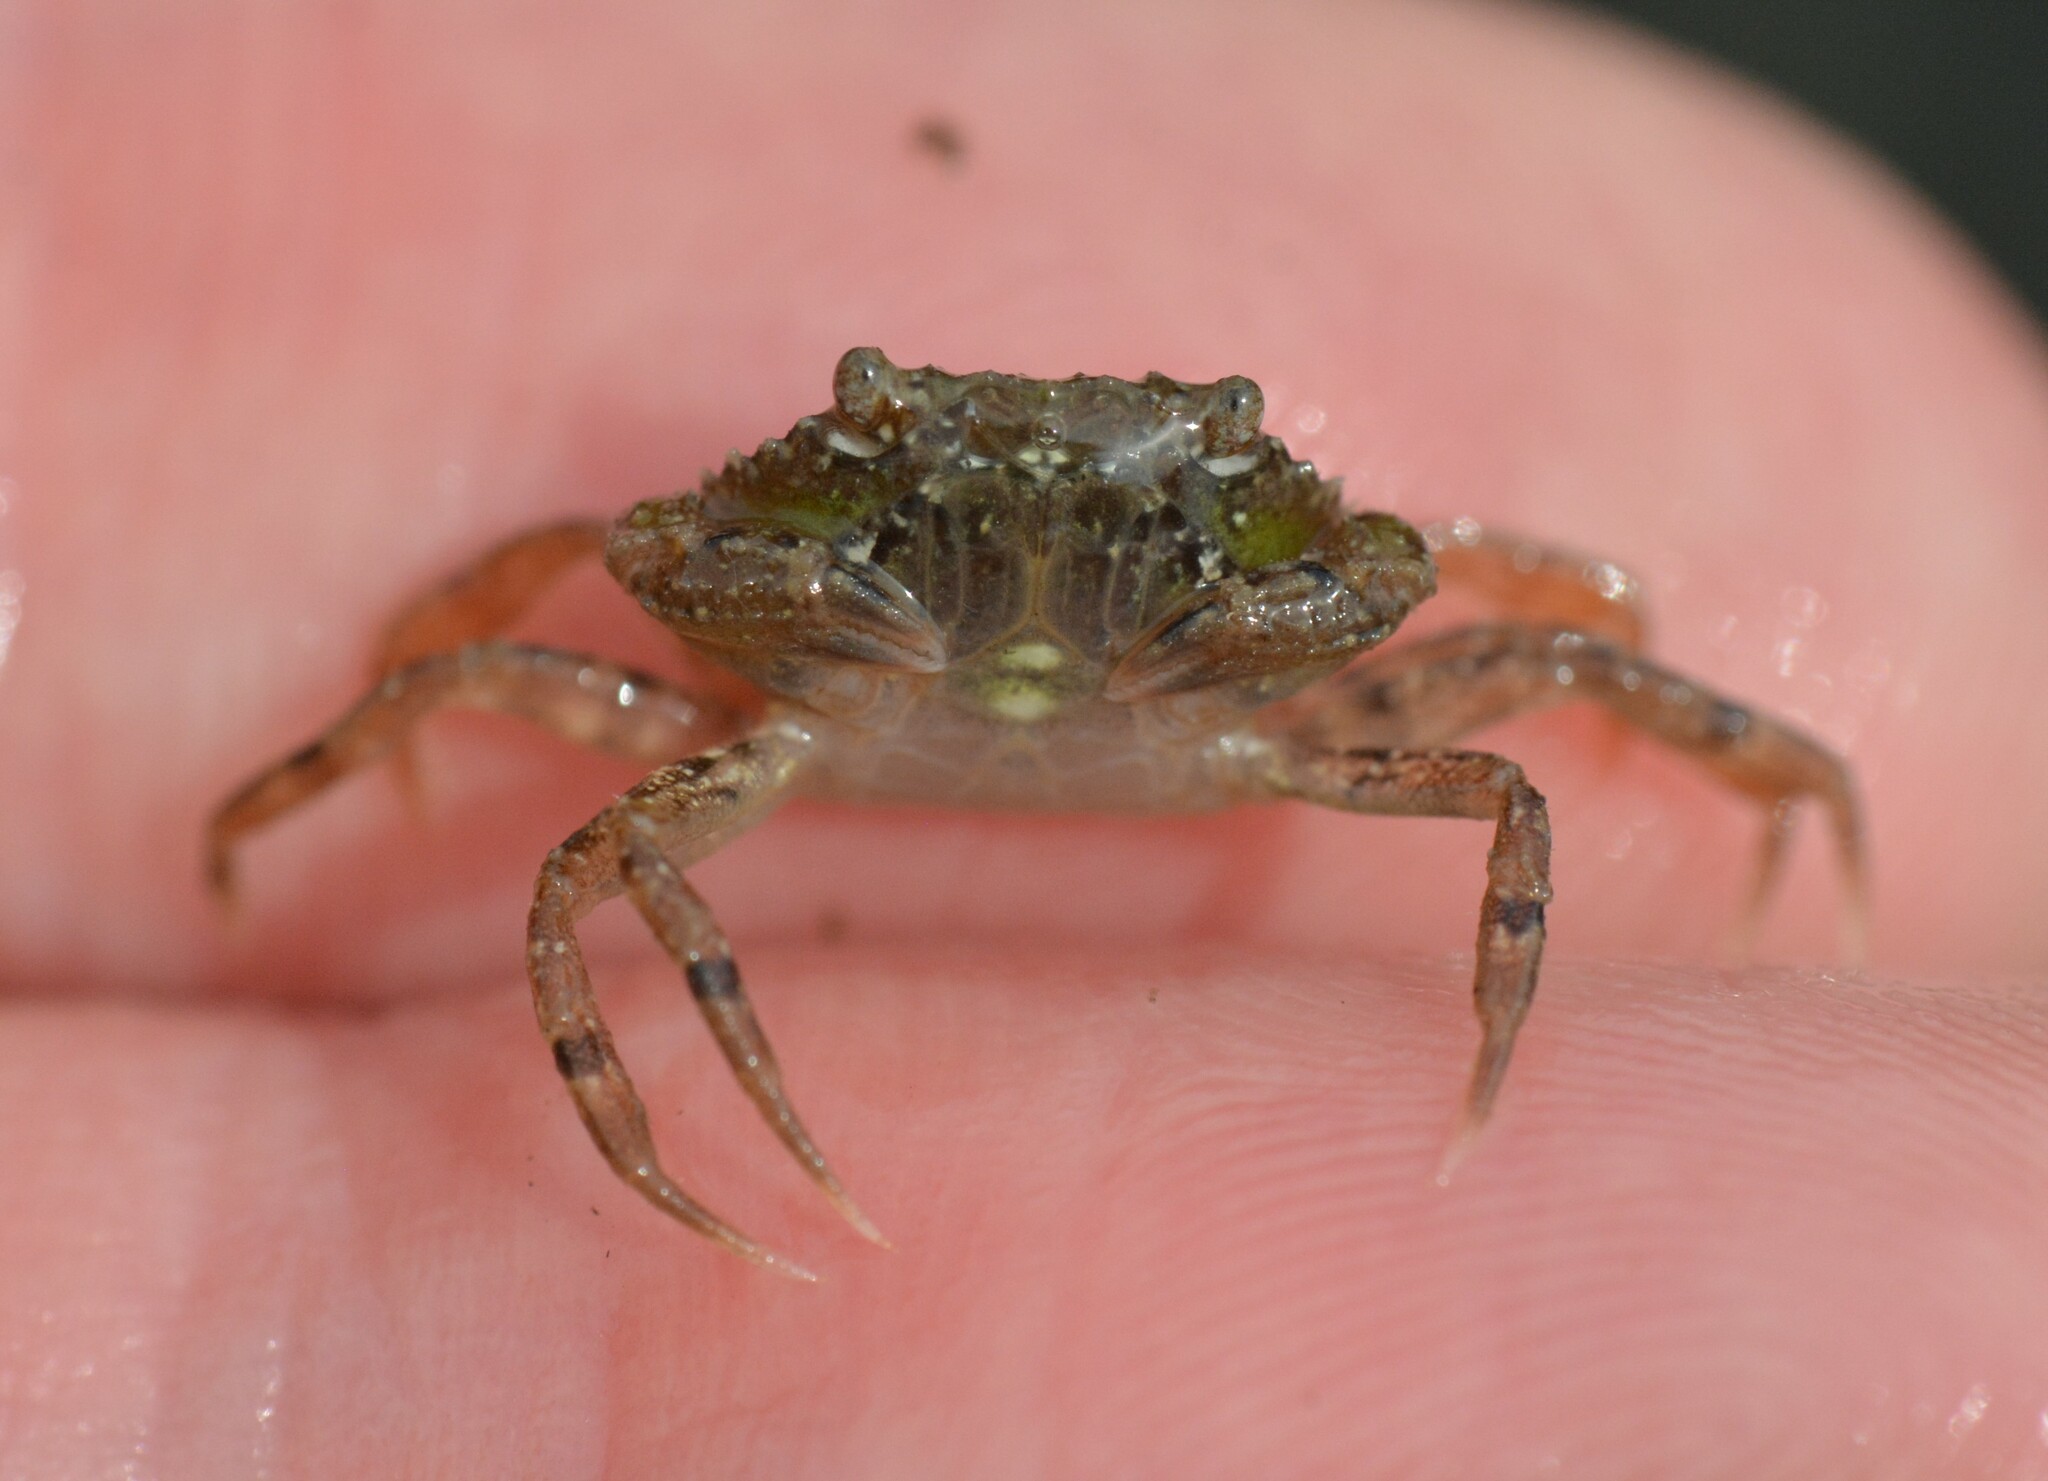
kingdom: Animalia
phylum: Arthropoda
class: Malacostraca
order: Decapoda
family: Carcinidae
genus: Carcinus
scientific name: Carcinus maenas
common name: European green crab
